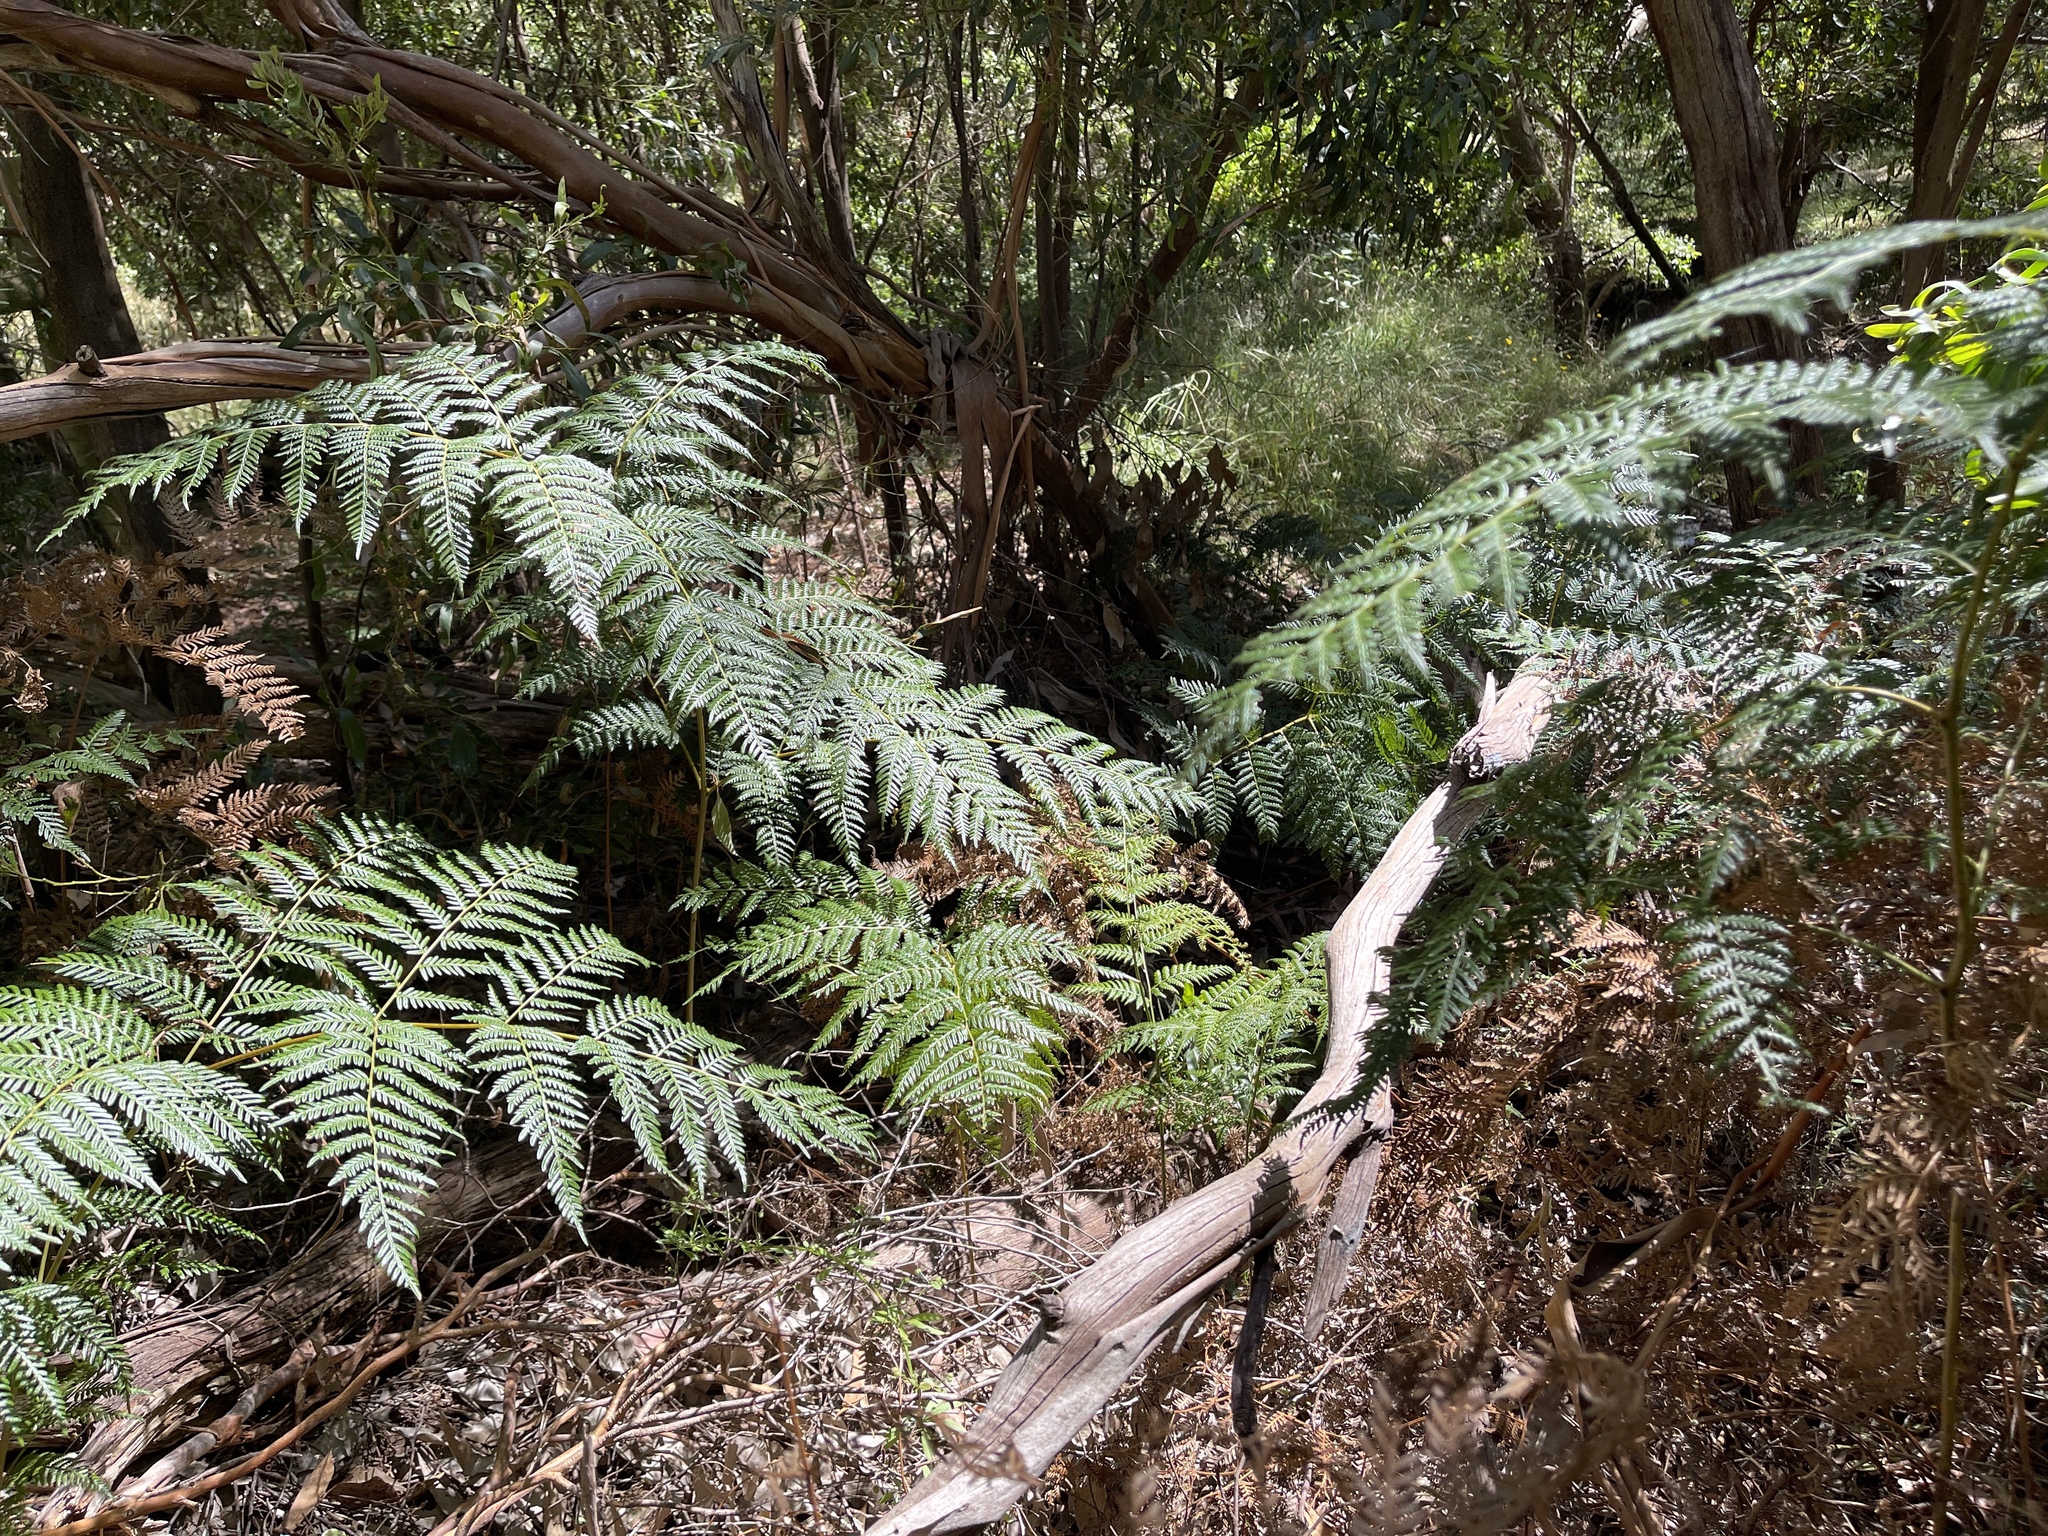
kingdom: Plantae
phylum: Tracheophyta
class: Polypodiopsida
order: Polypodiales
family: Dennstaedtiaceae
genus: Pteridium
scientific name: Pteridium esculentum
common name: Bracken fern
